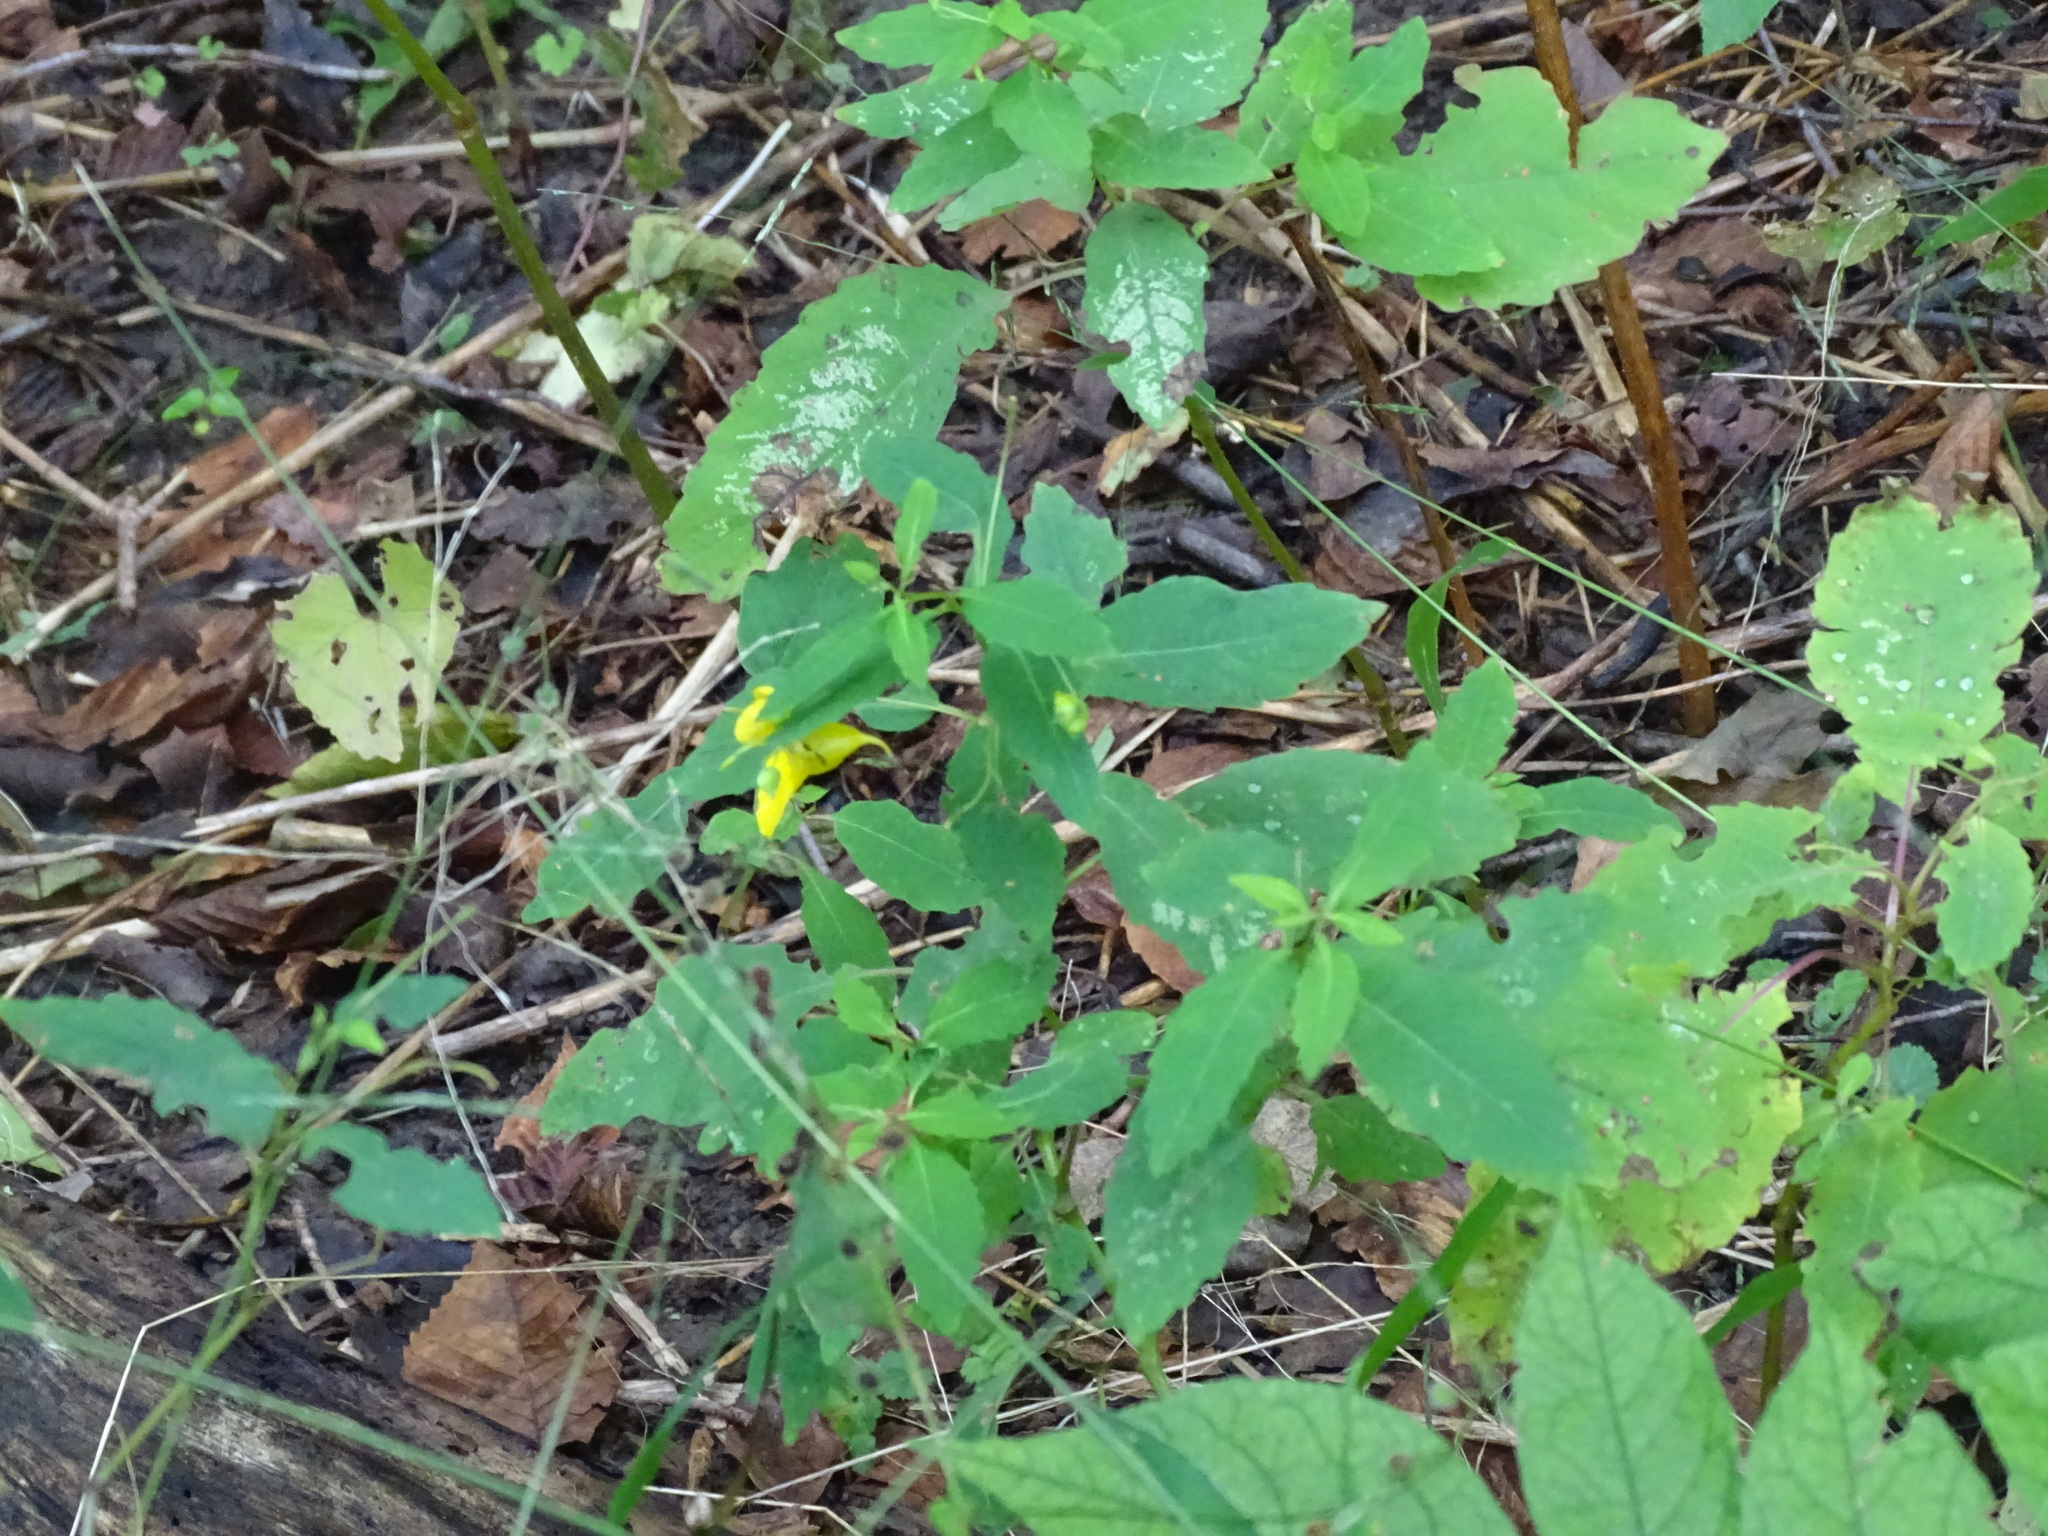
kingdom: Plantae
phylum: Tracheophyta
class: Magnoliopsida
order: Ericales
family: Balsaminaceae
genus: Impatiens
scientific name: Impatiens pallida
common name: Pale snapweed
